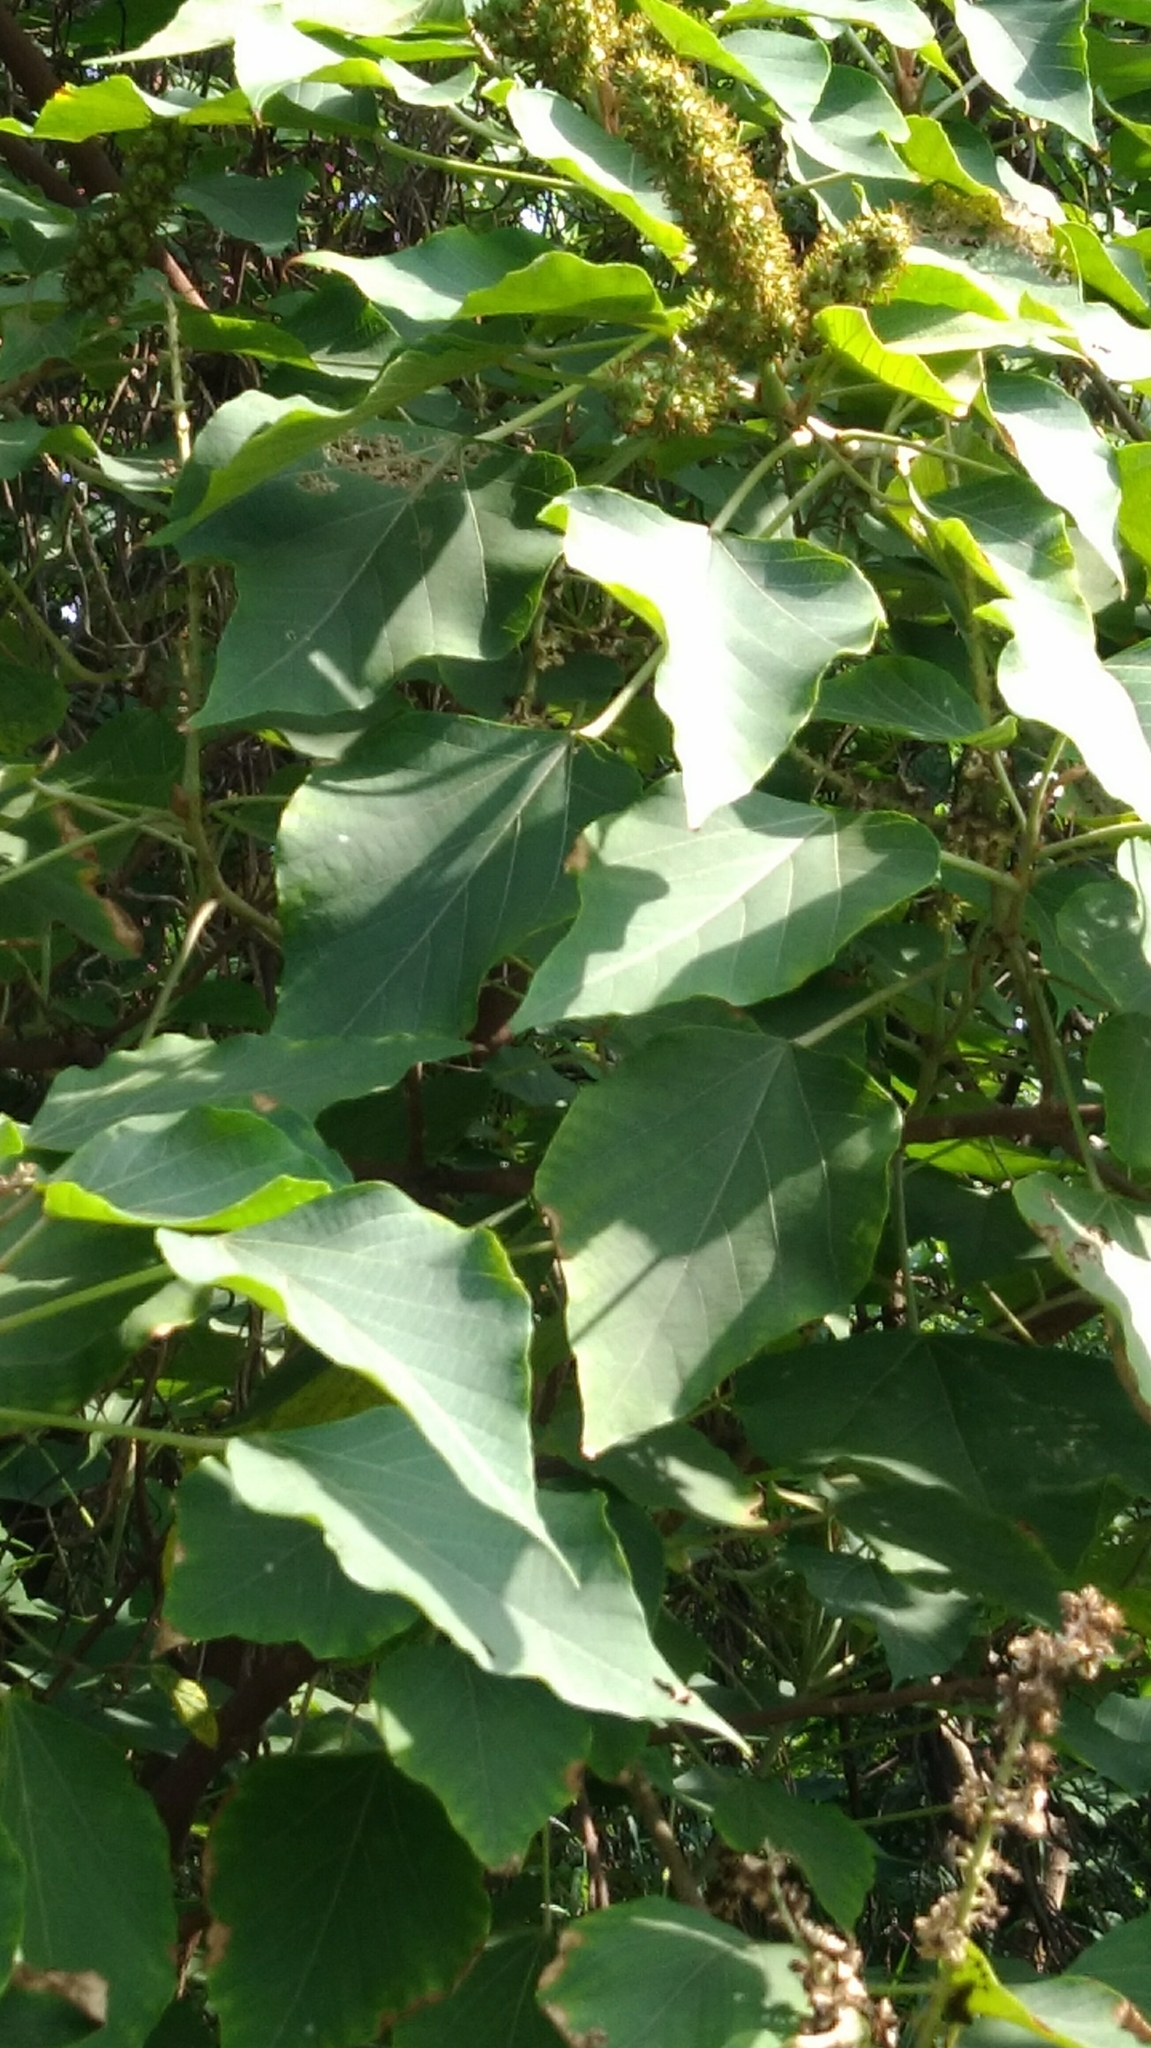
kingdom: Plantae
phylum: Tracheophyta
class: Magnoliopsida
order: Malpighiales
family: Euphorbiaceae
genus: Mallotus
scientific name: Mallotus japonicus
